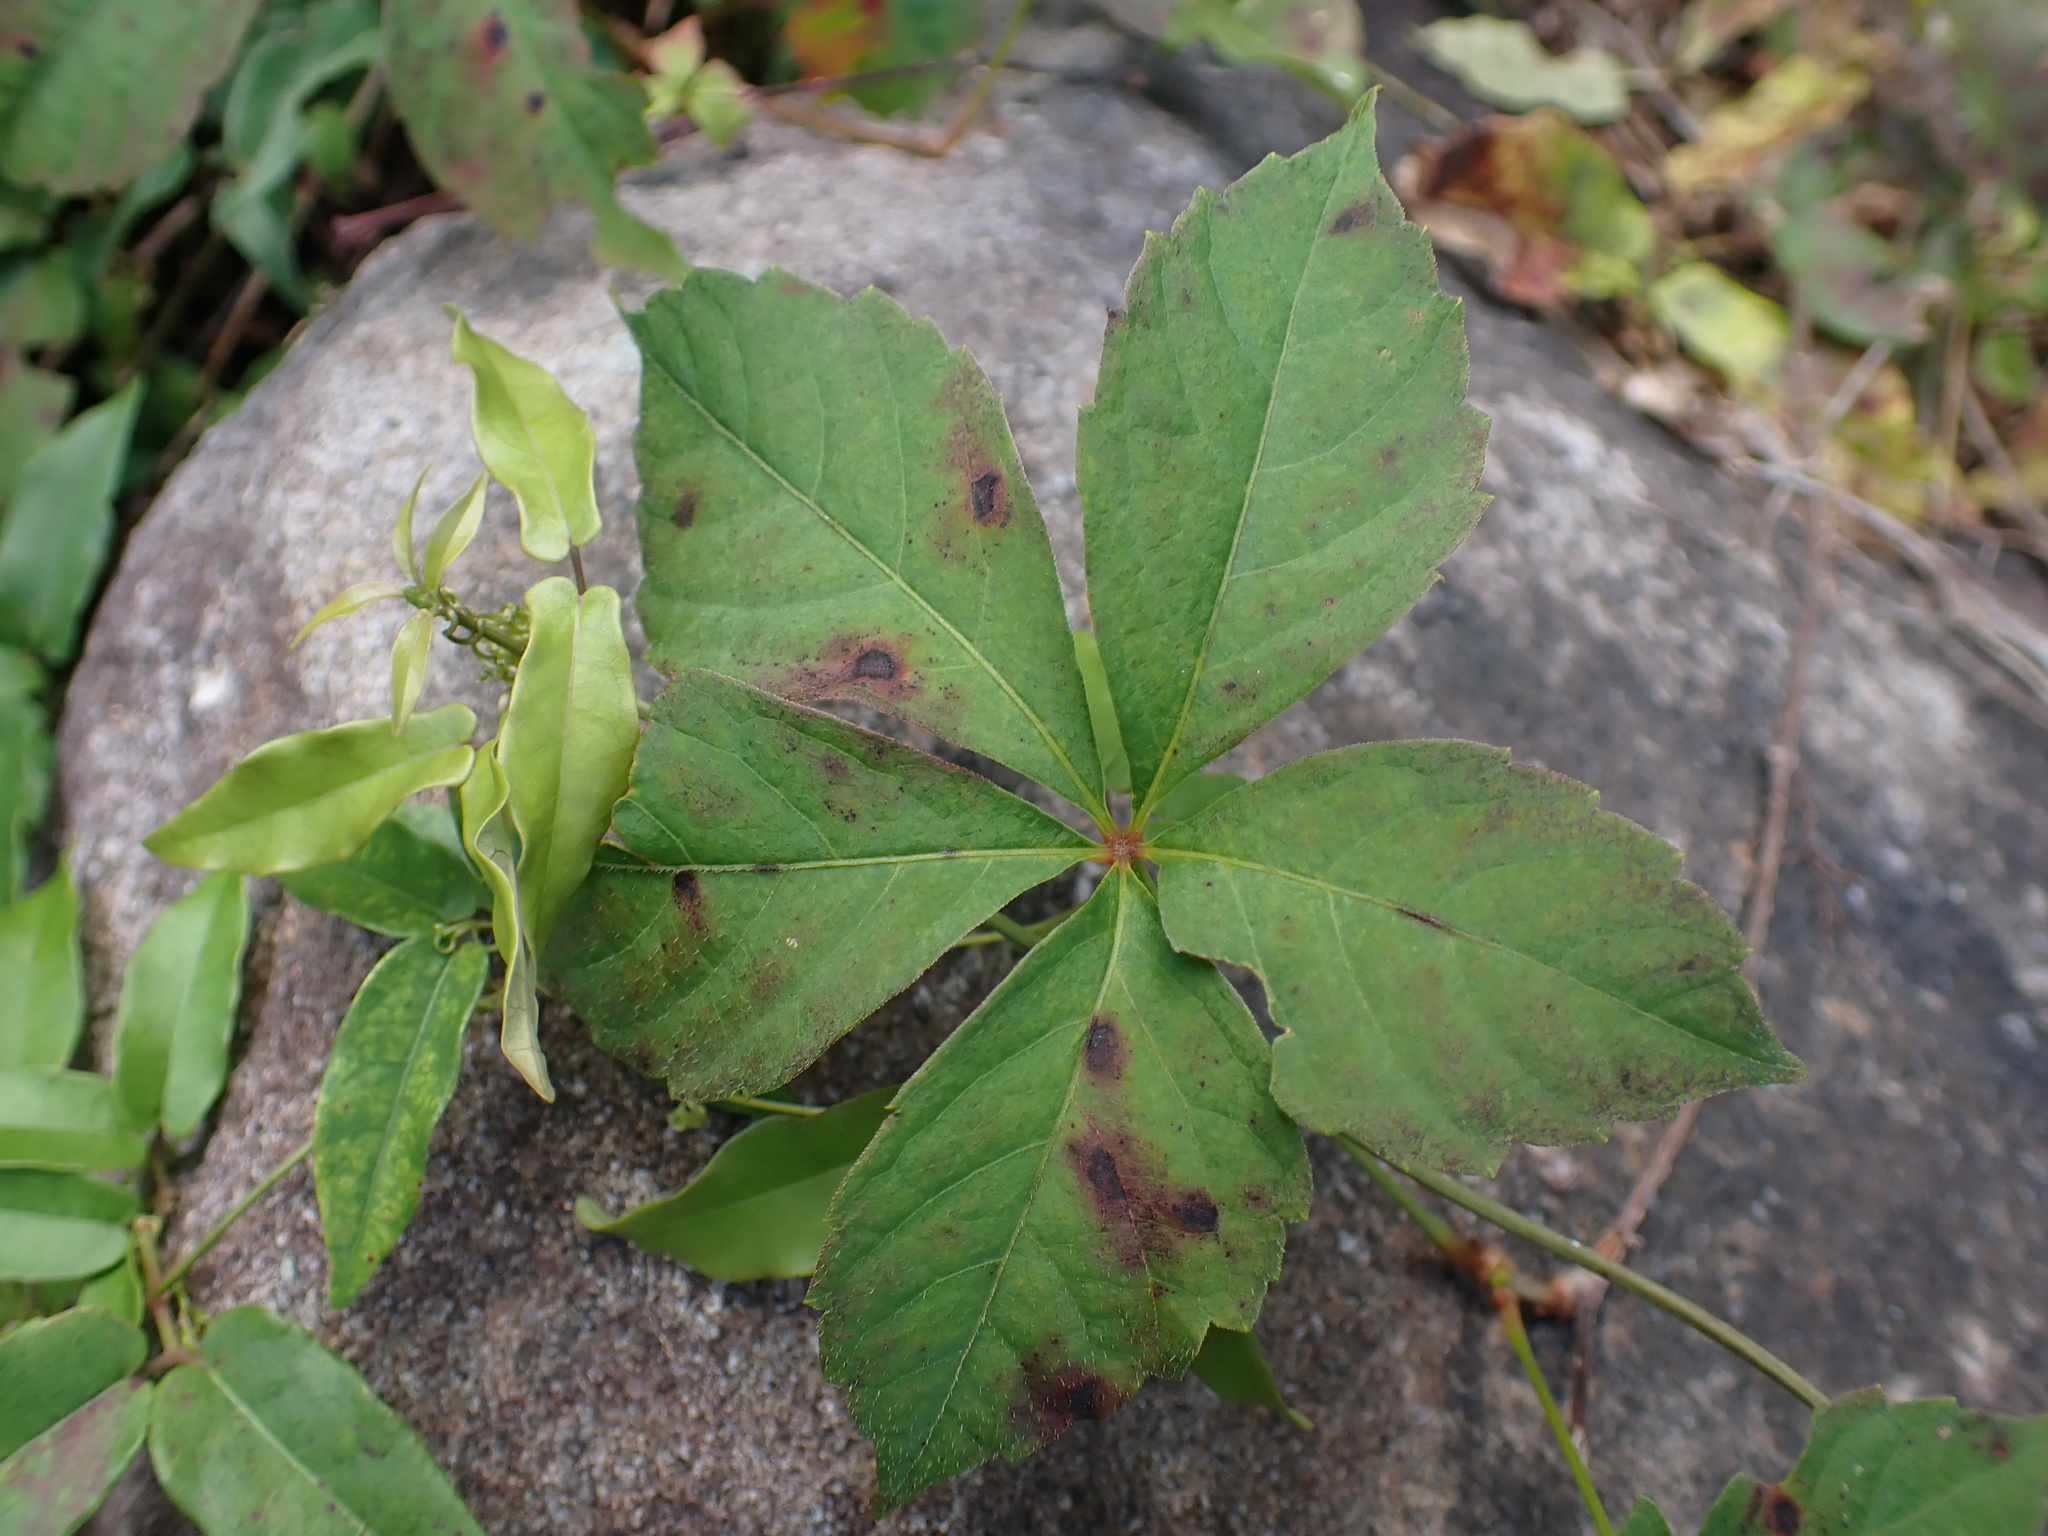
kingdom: Plantae
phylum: Tracheophyta
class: Magnoliopsida
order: Vitales
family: Vitaceae
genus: Parthenocissus
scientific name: Parthenocissus quinquefolia
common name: Virginia-creeper
